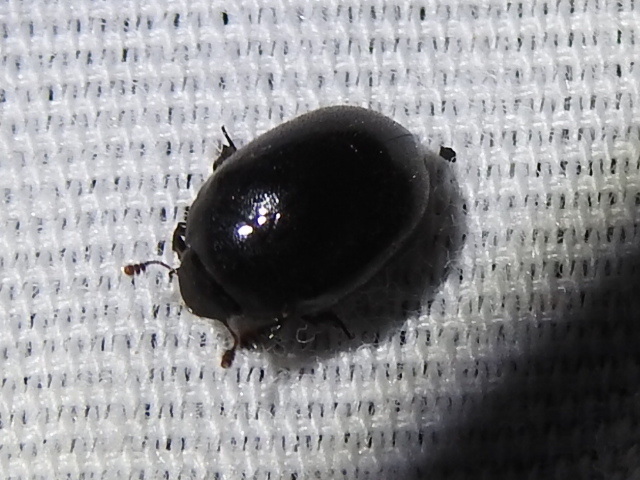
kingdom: Animalia
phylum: Arthropoda
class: Insecta
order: Coleoptera
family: Nosodendridae
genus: Nosodendron
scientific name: Nosodendron unicolor
